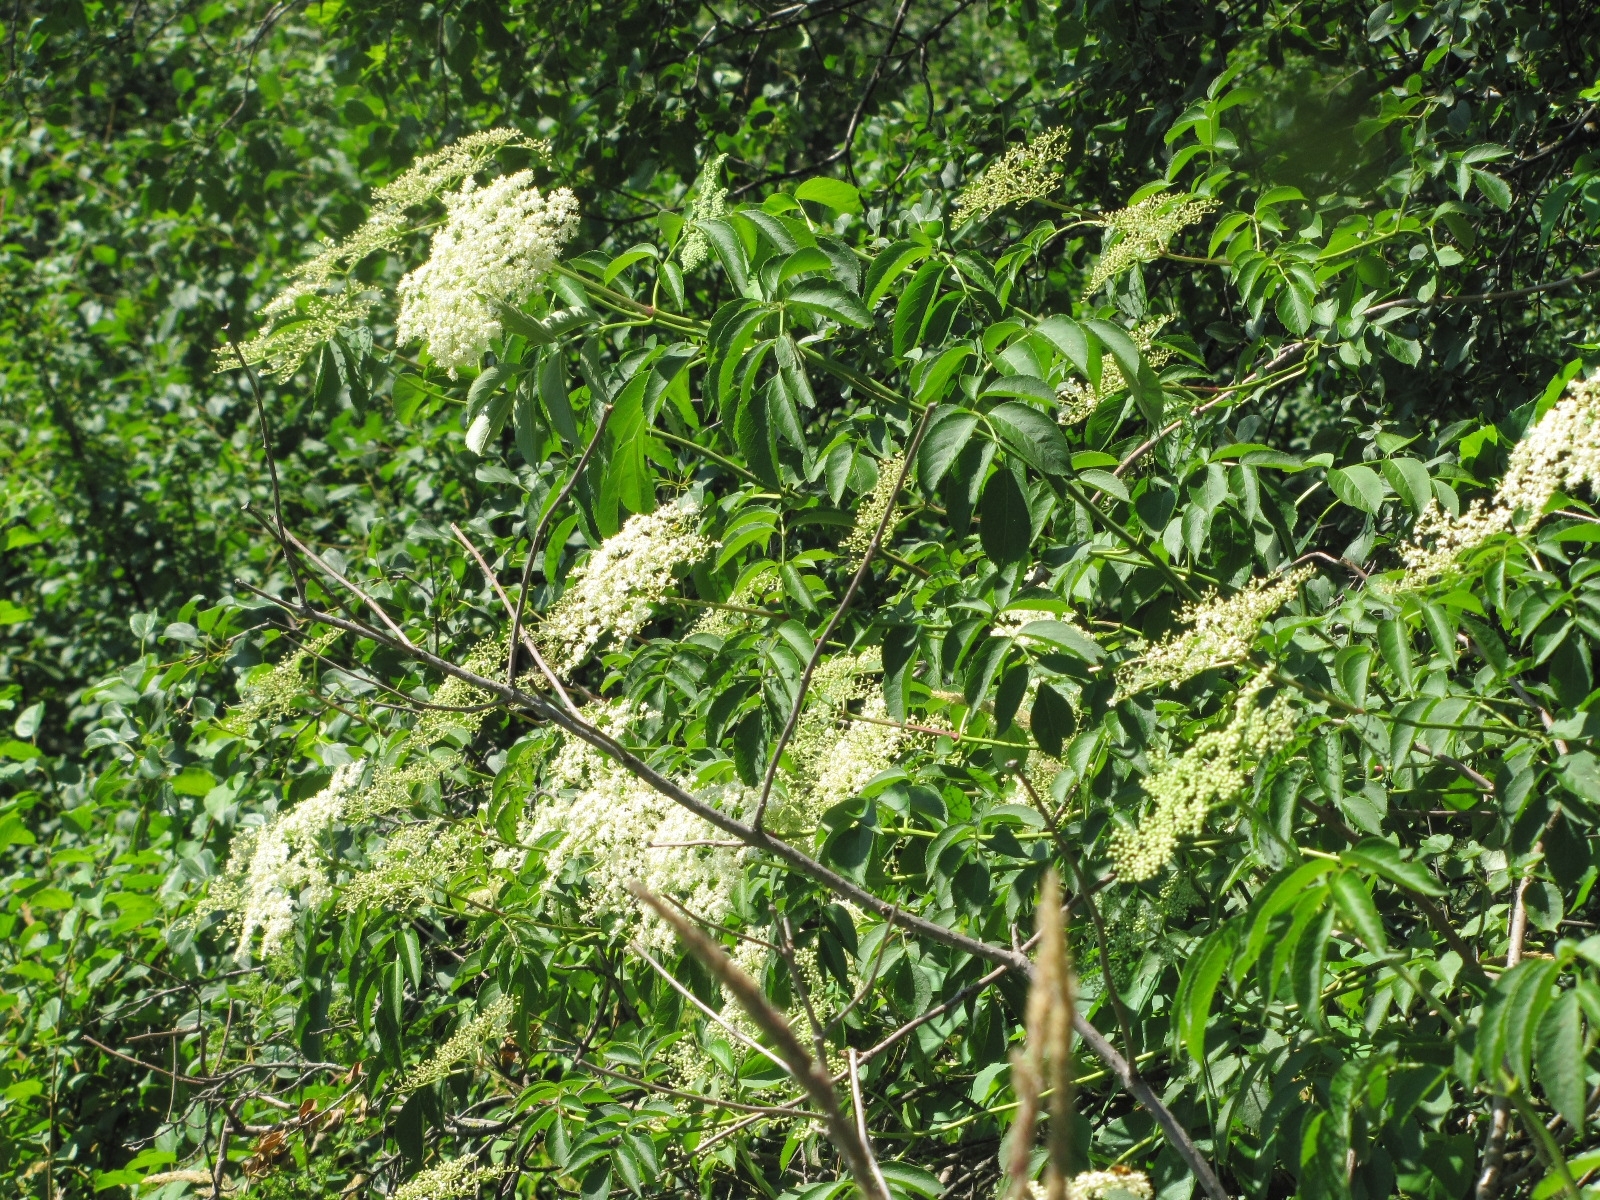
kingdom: Plantae
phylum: Tracheophyta
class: Magnoliopsida
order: Dipsacales
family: Viburnaceae
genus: Sambucus
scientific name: Sambucus canadensis
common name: American elder
